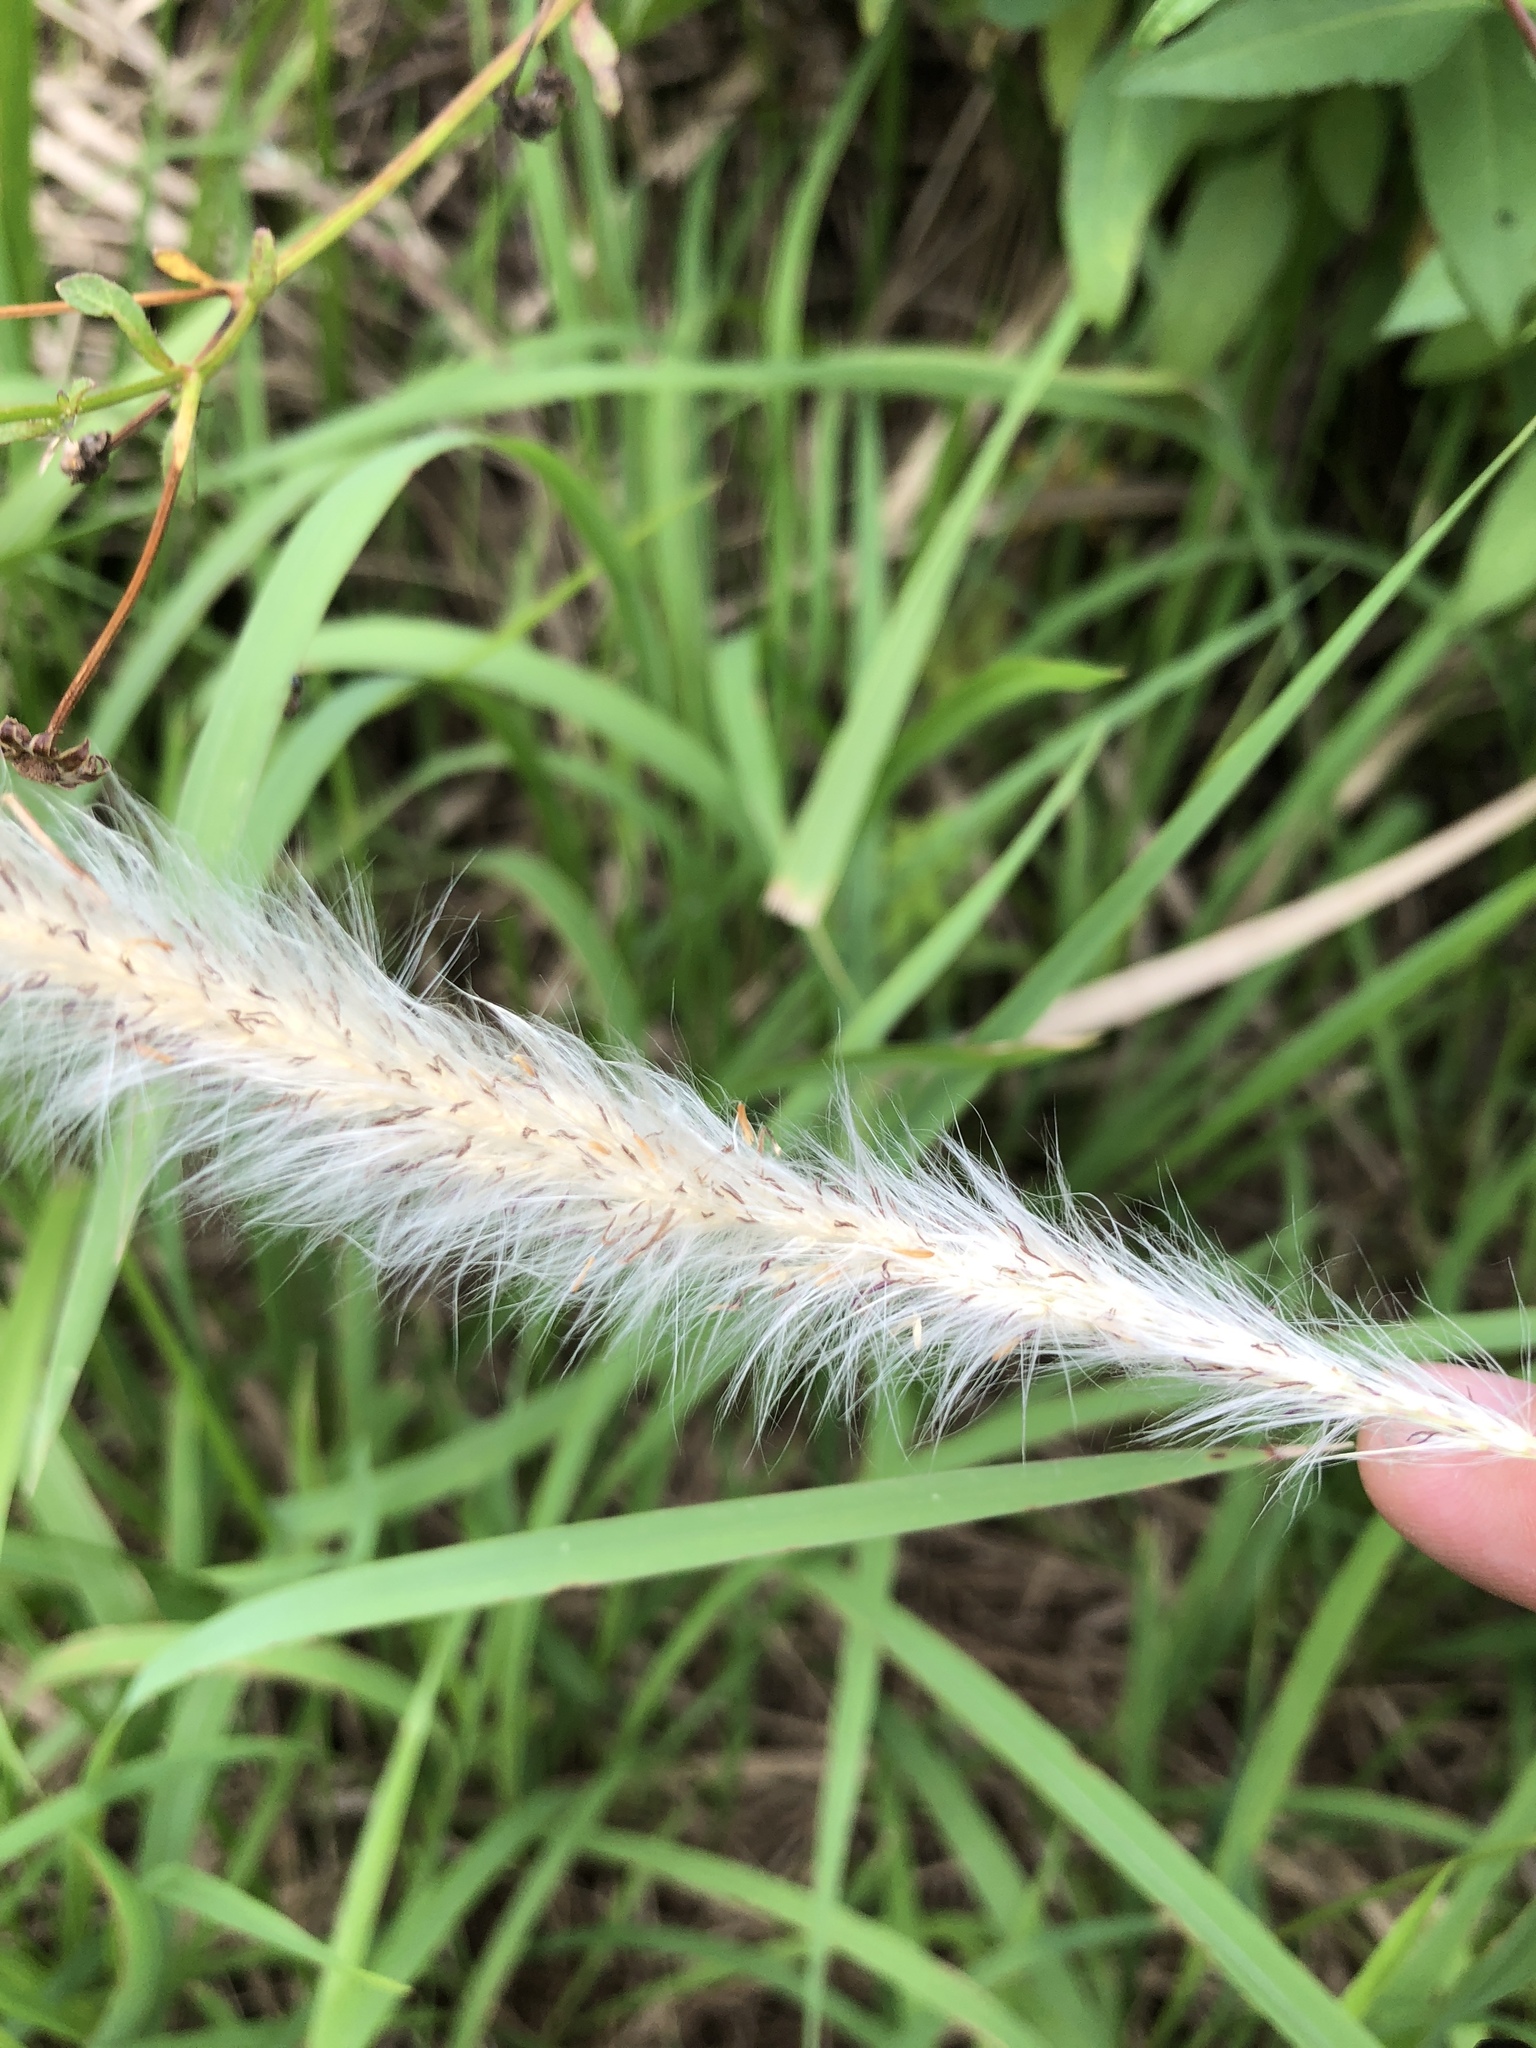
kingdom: Plantae
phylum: Tracheophyta
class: Liliopsida
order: Poales
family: Poaceae
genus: Imperata
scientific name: Imperata cylindrica
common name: Cogongrass
